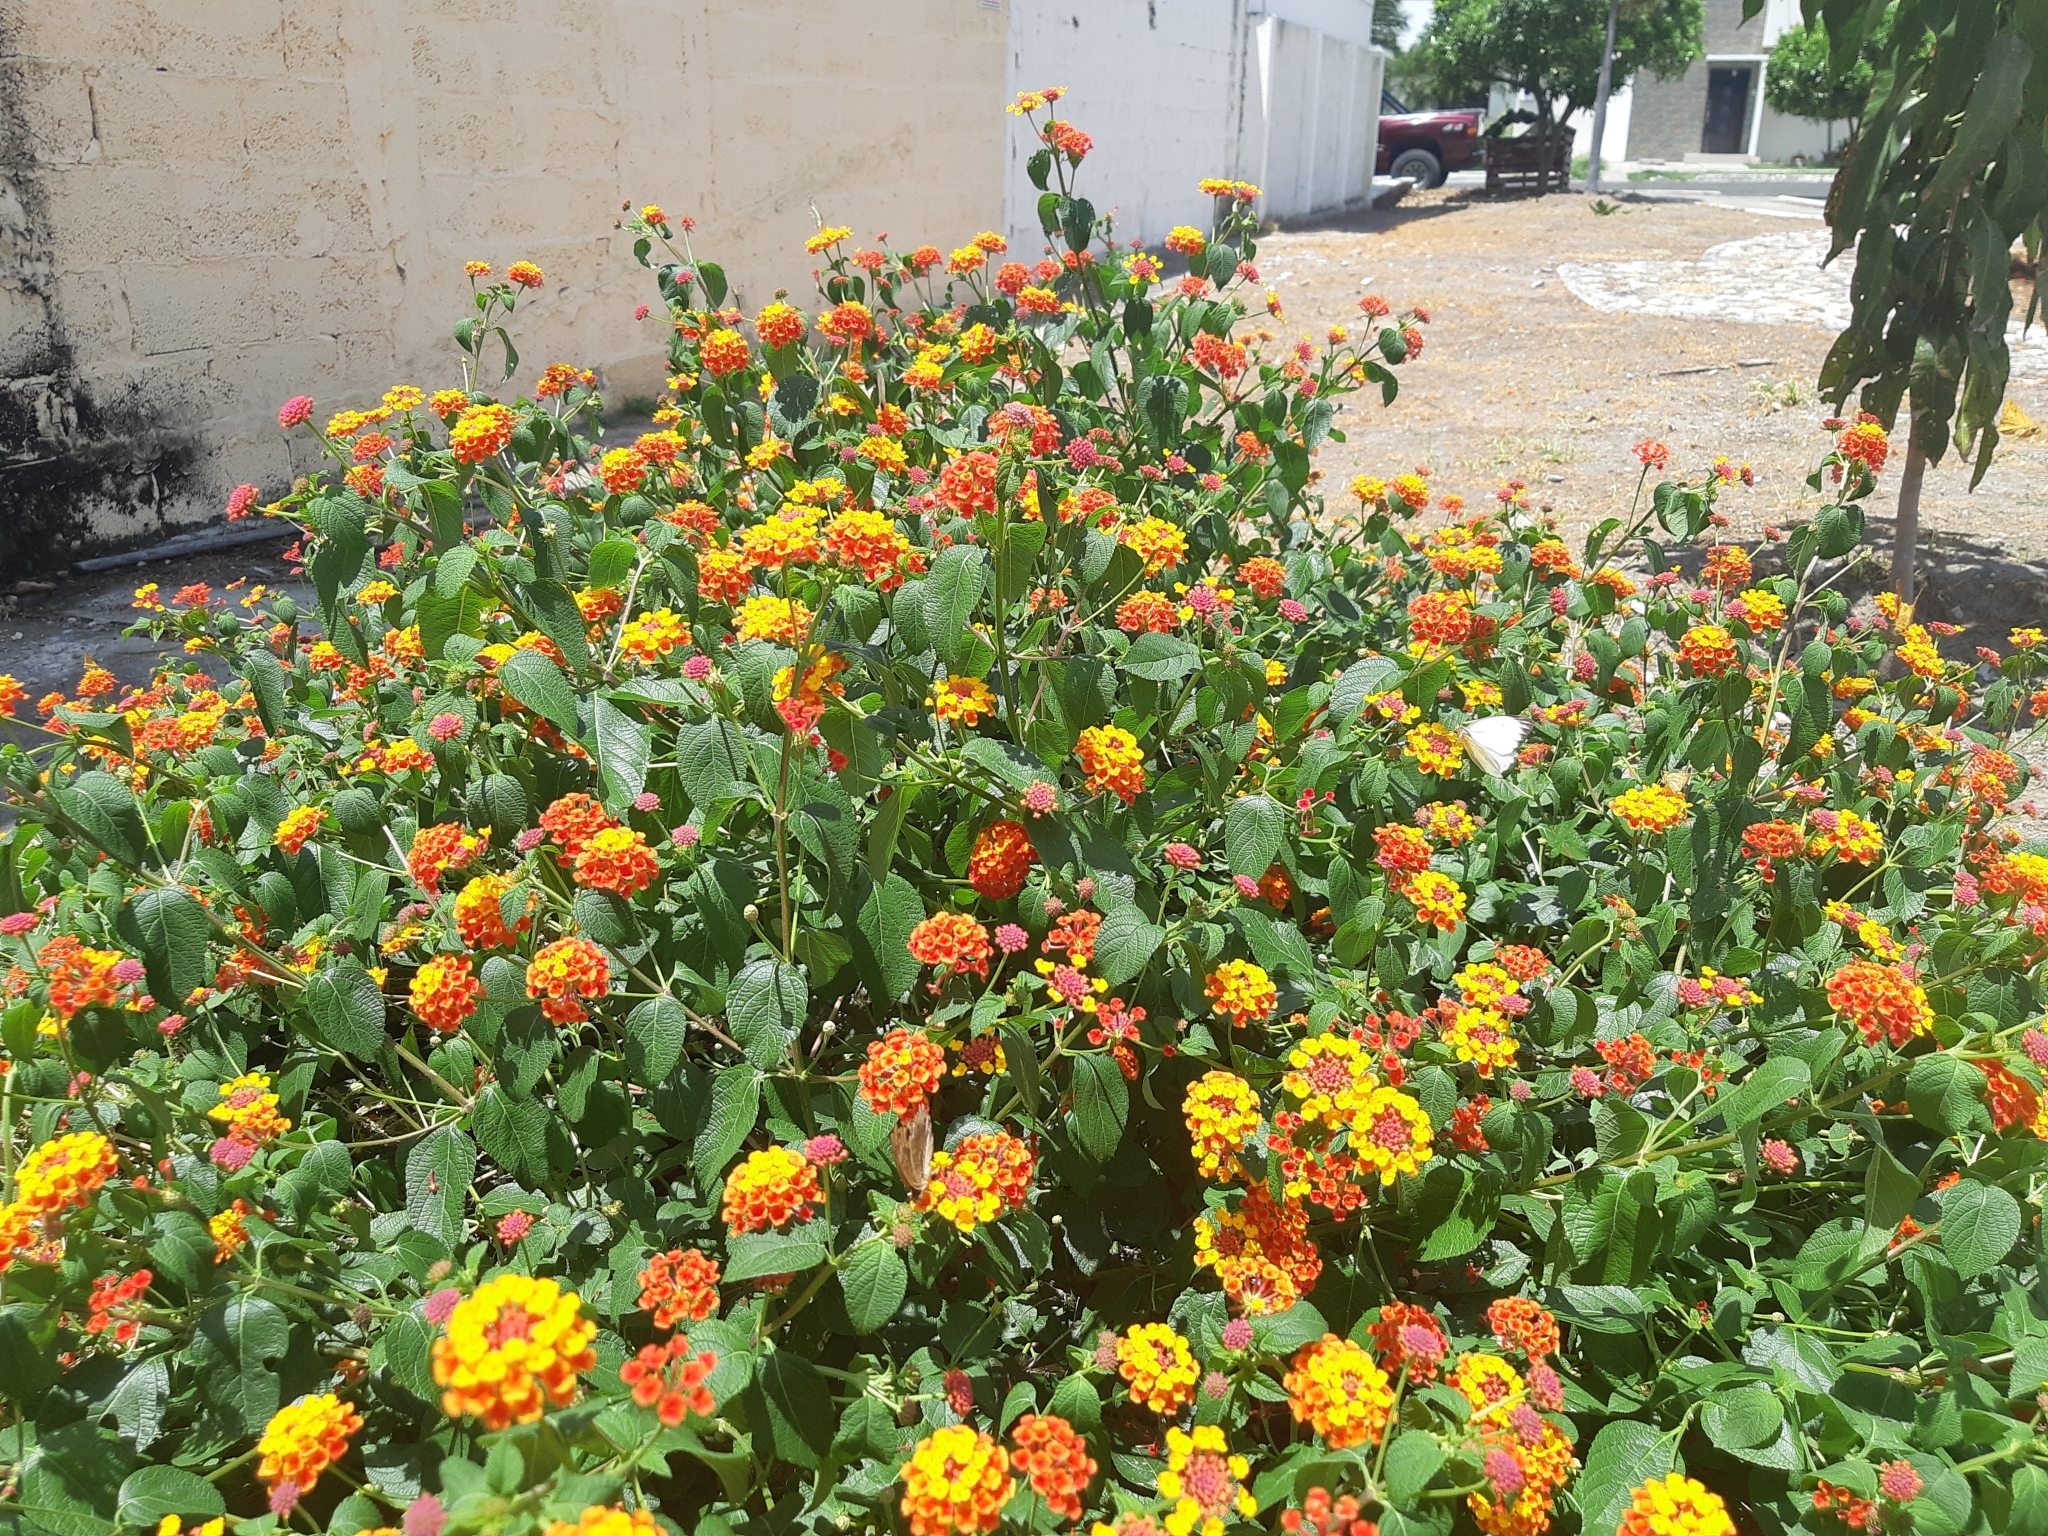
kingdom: Plantae
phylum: Tracheophyta
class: Magnoliopsida
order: Lamiales
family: Verbenaceae
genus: Lantana
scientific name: Lantana camara
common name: Lantana
